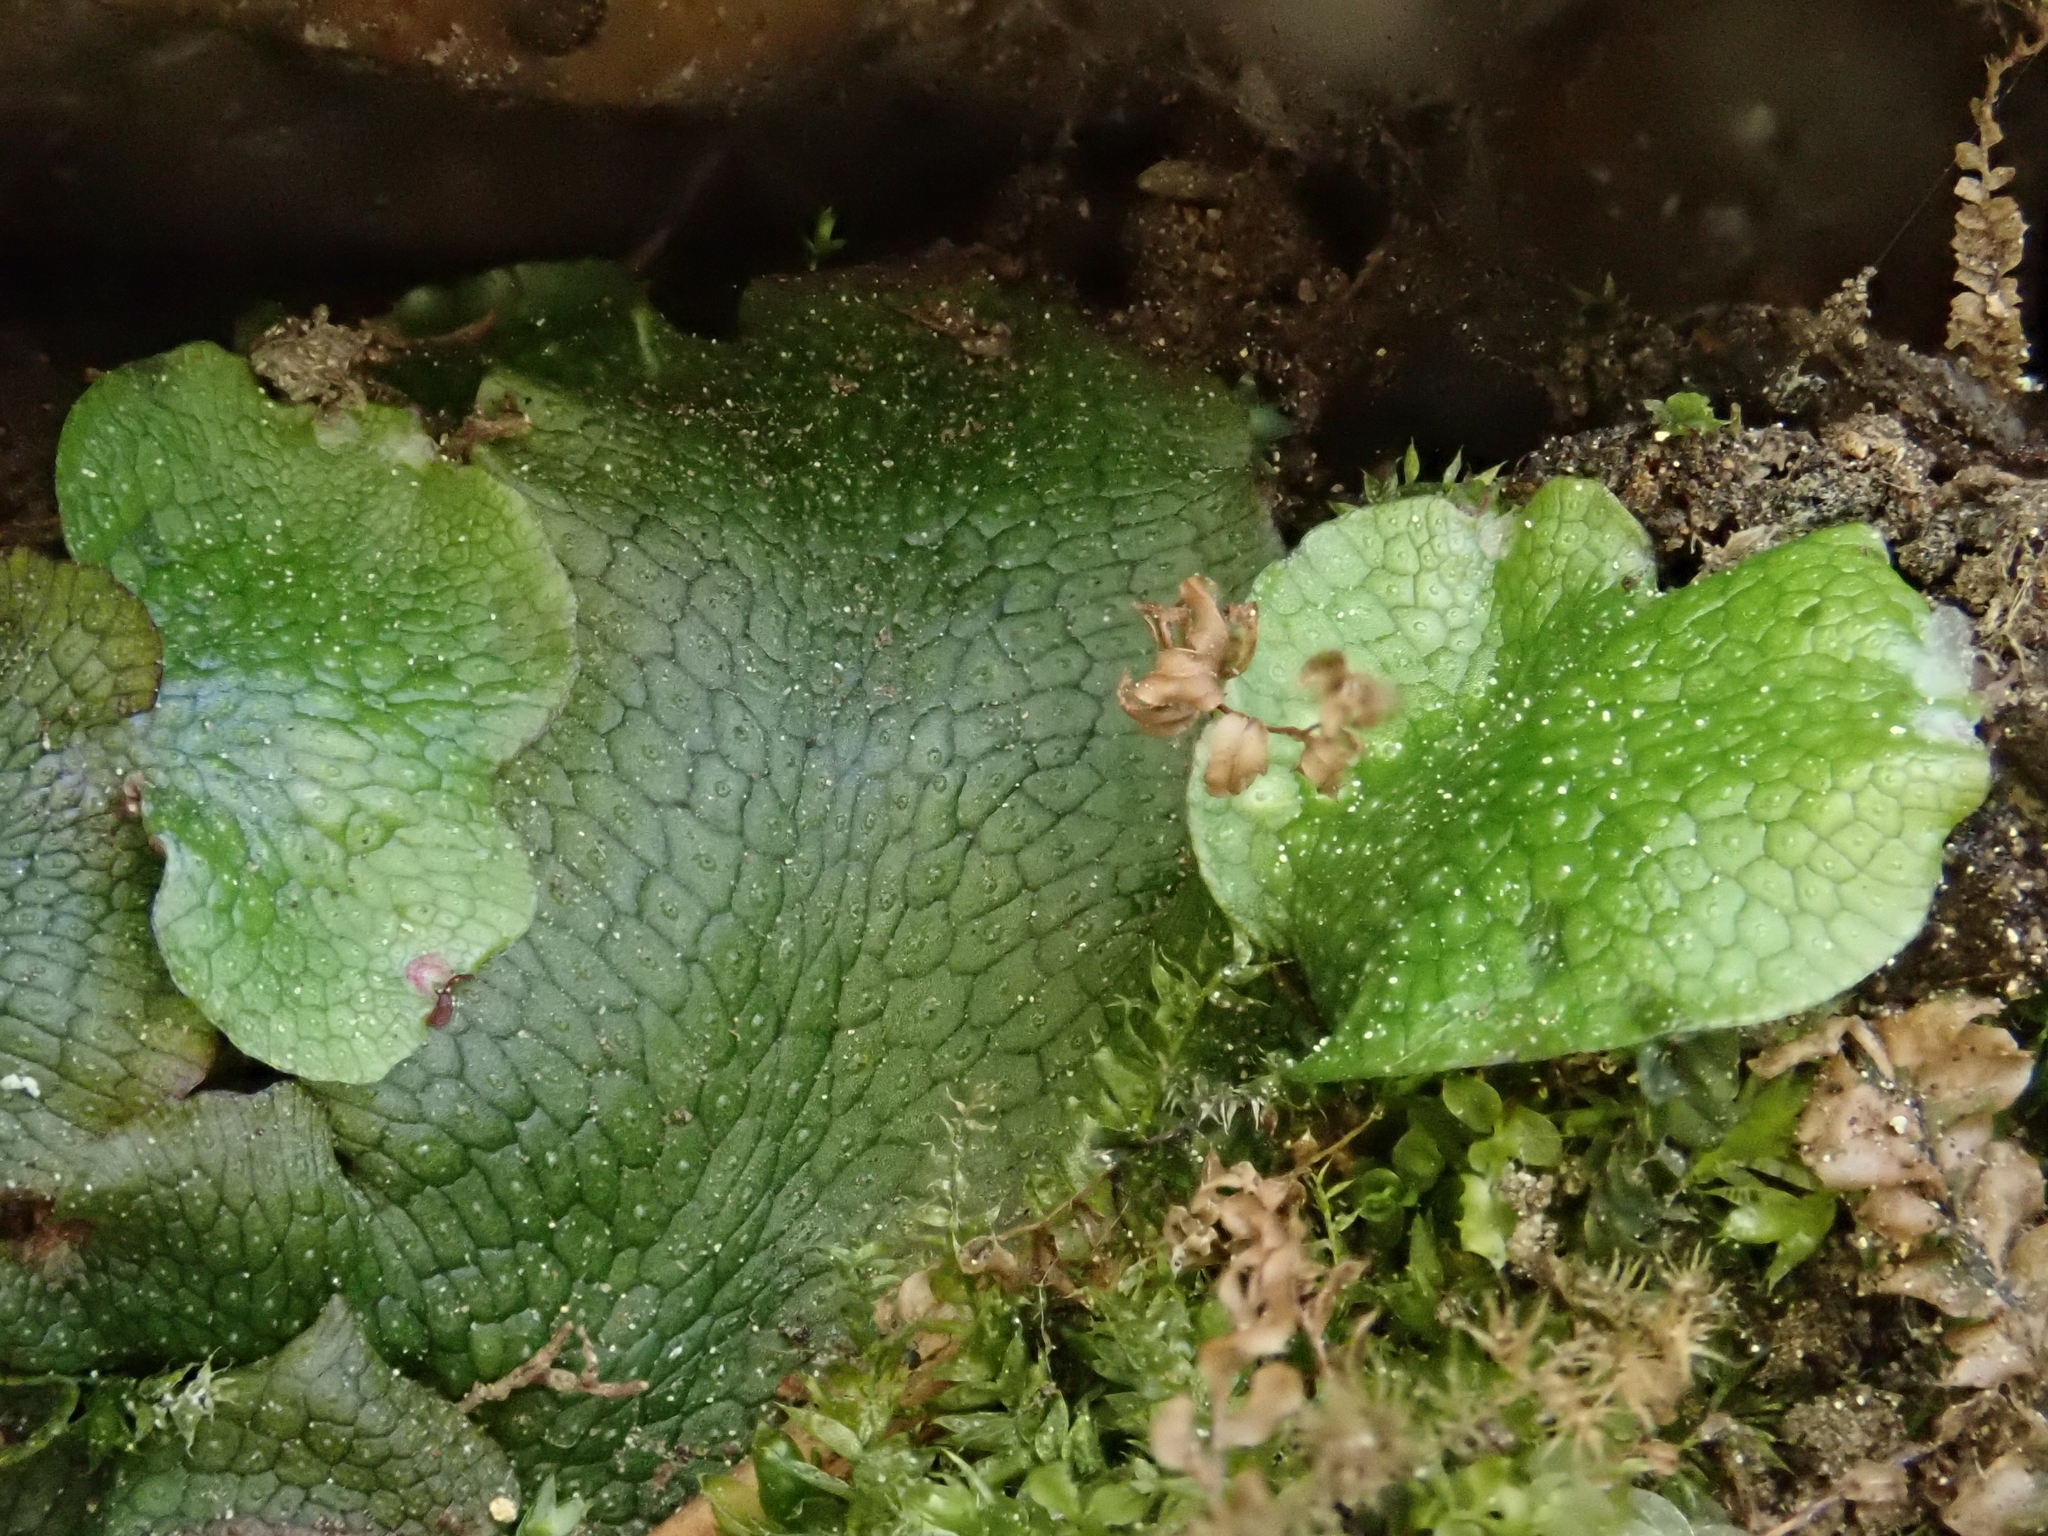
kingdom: Plantae
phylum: Marchantiophyta
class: Marchantiopsida
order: Marchantiales
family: Conocephalaceae
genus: Conocephalum
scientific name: Conocephalum conicum
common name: Great scented liverwort
